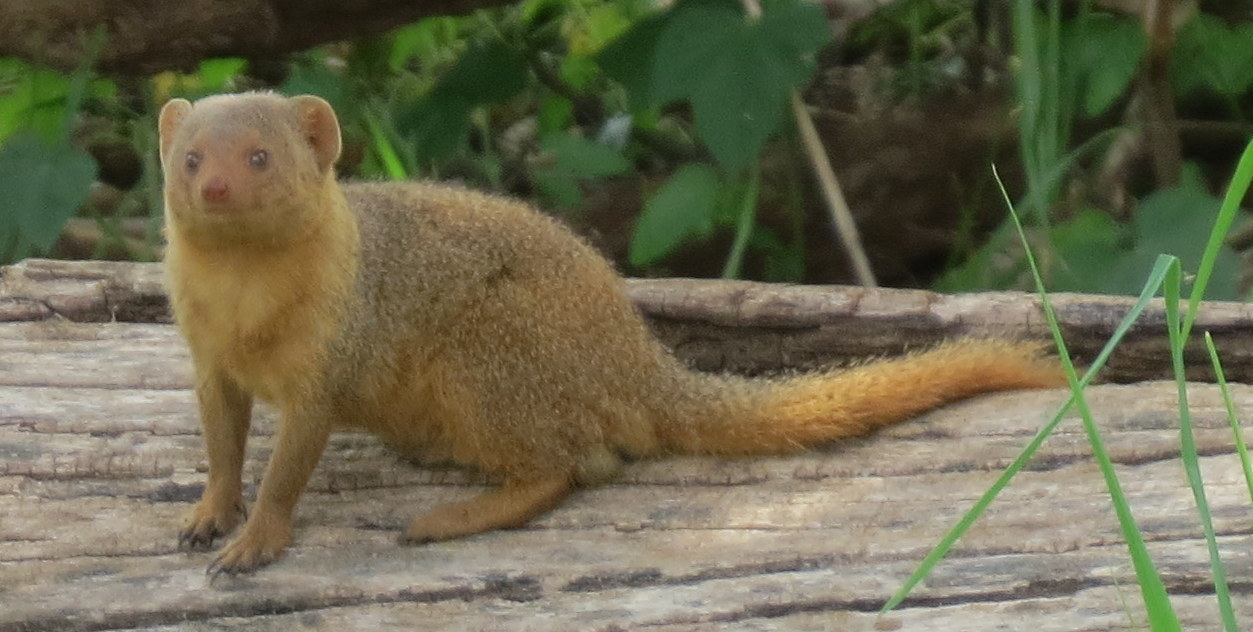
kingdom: Animalia
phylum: Chordata
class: Mammalia
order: Carnivora
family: Herpestidae
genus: Helogale
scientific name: Helogale parvula
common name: Common dwarf mongoose
